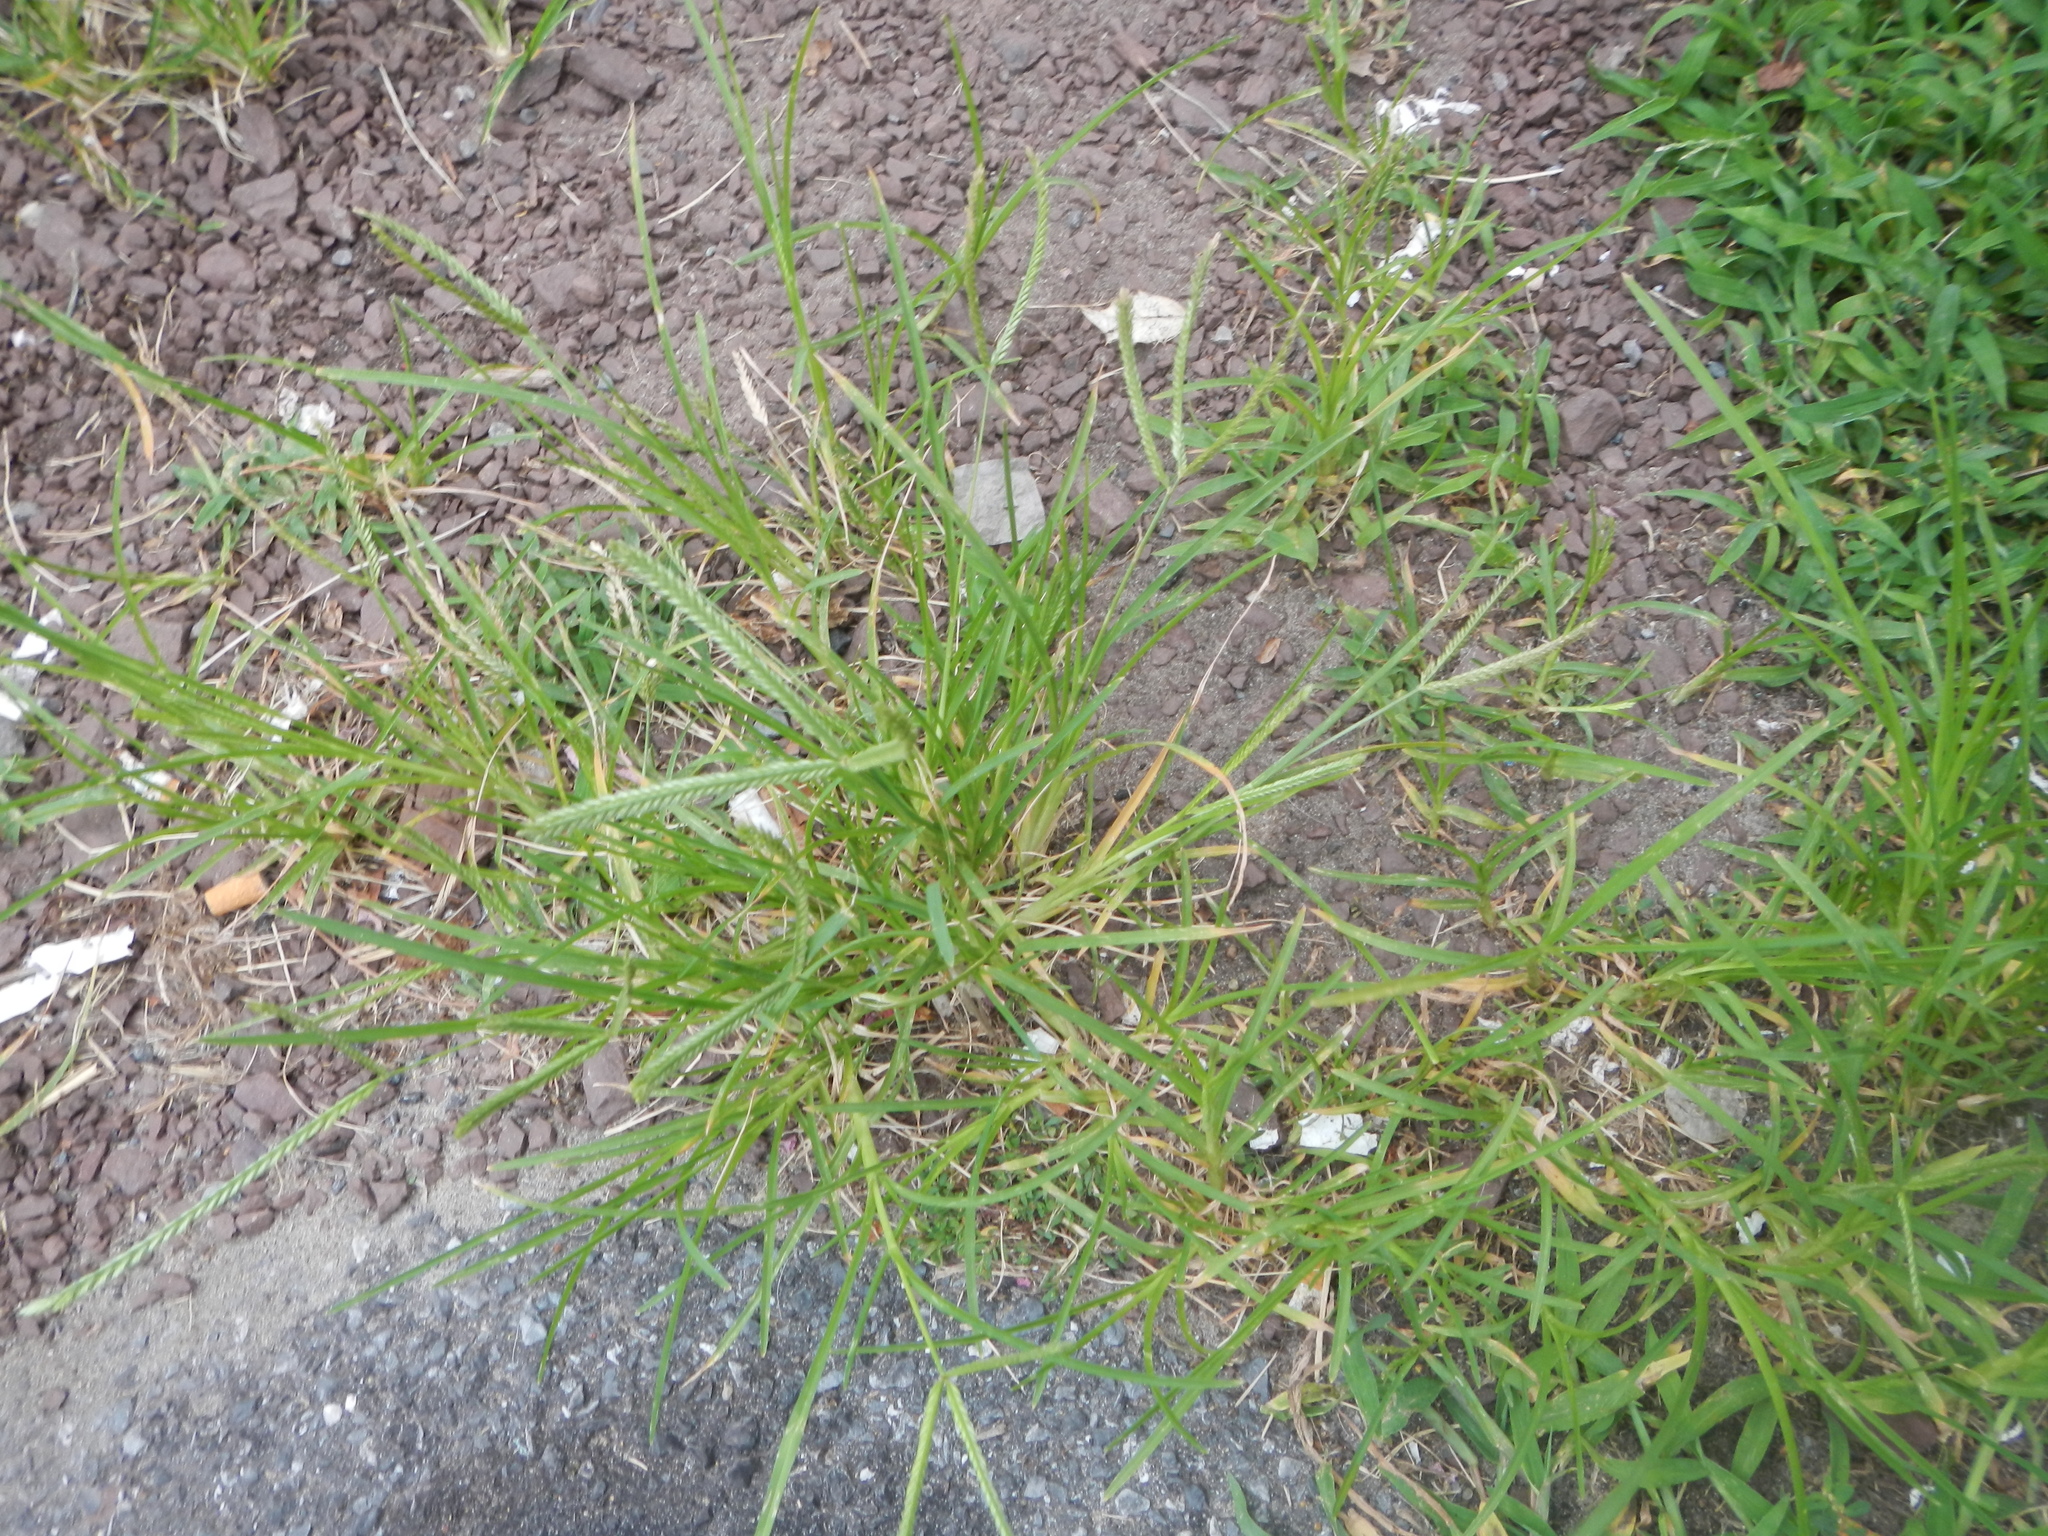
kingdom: Plantae
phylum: Tracheophyta
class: Liliopsida
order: Poales
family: Poaceae
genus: Eleusine
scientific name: Eleusine indica
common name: Yard-grass
